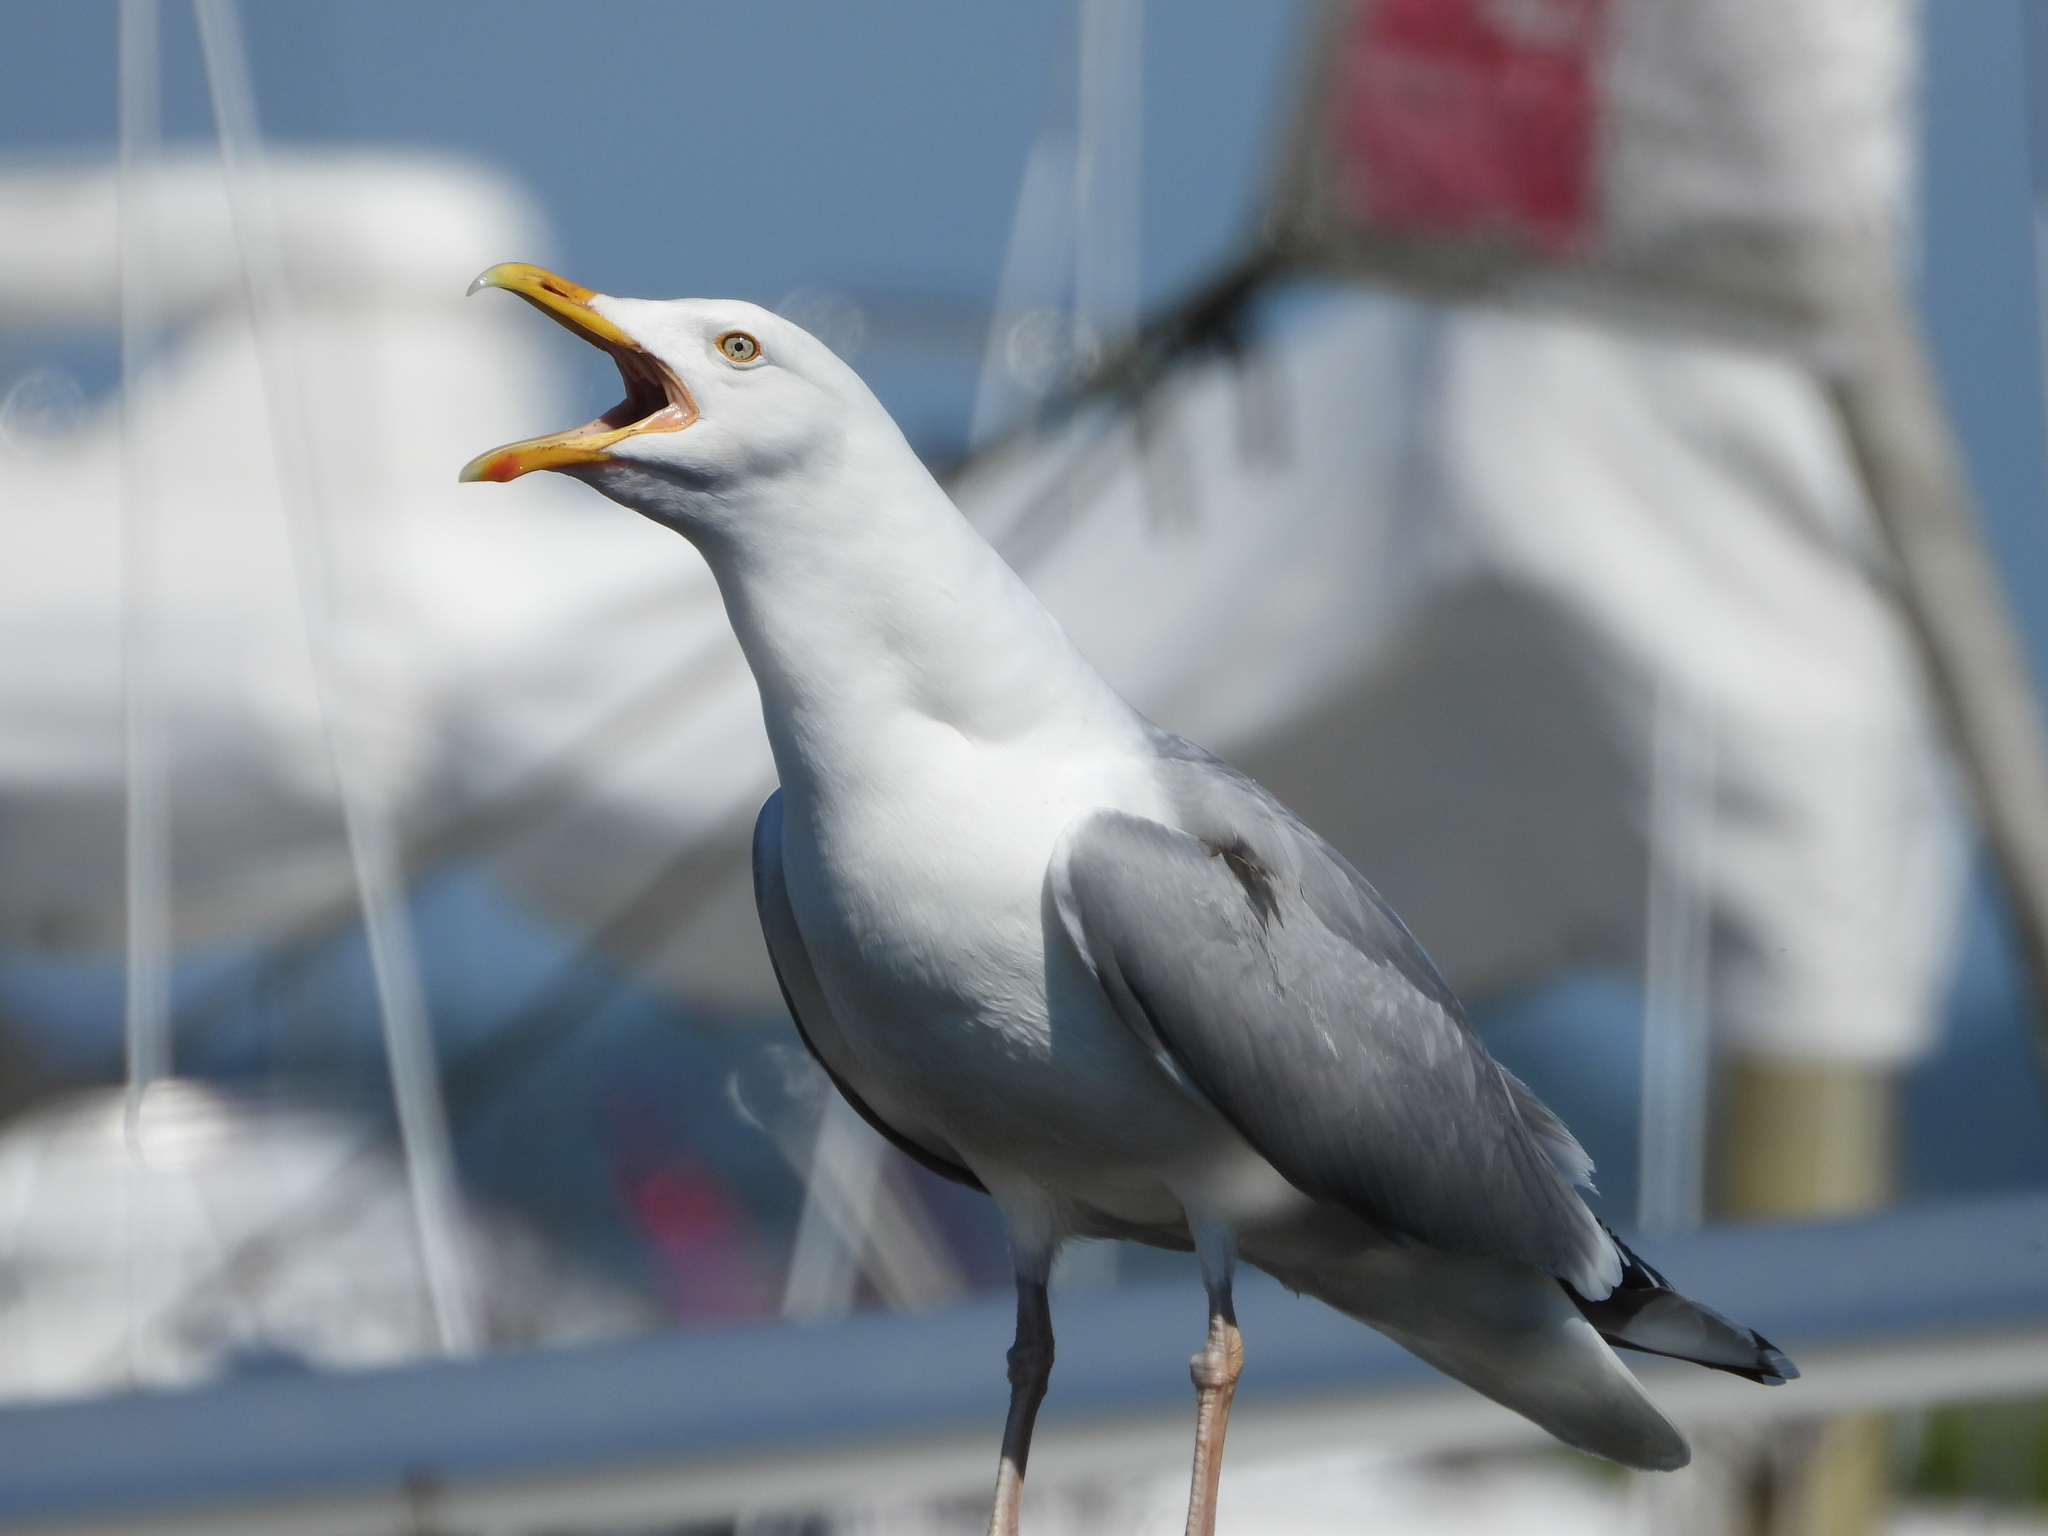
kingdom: Animalia
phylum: Chordata
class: Aves
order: Charadriiformes
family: Laridae
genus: Larus
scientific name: Larus argentatus
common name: Herring gull
